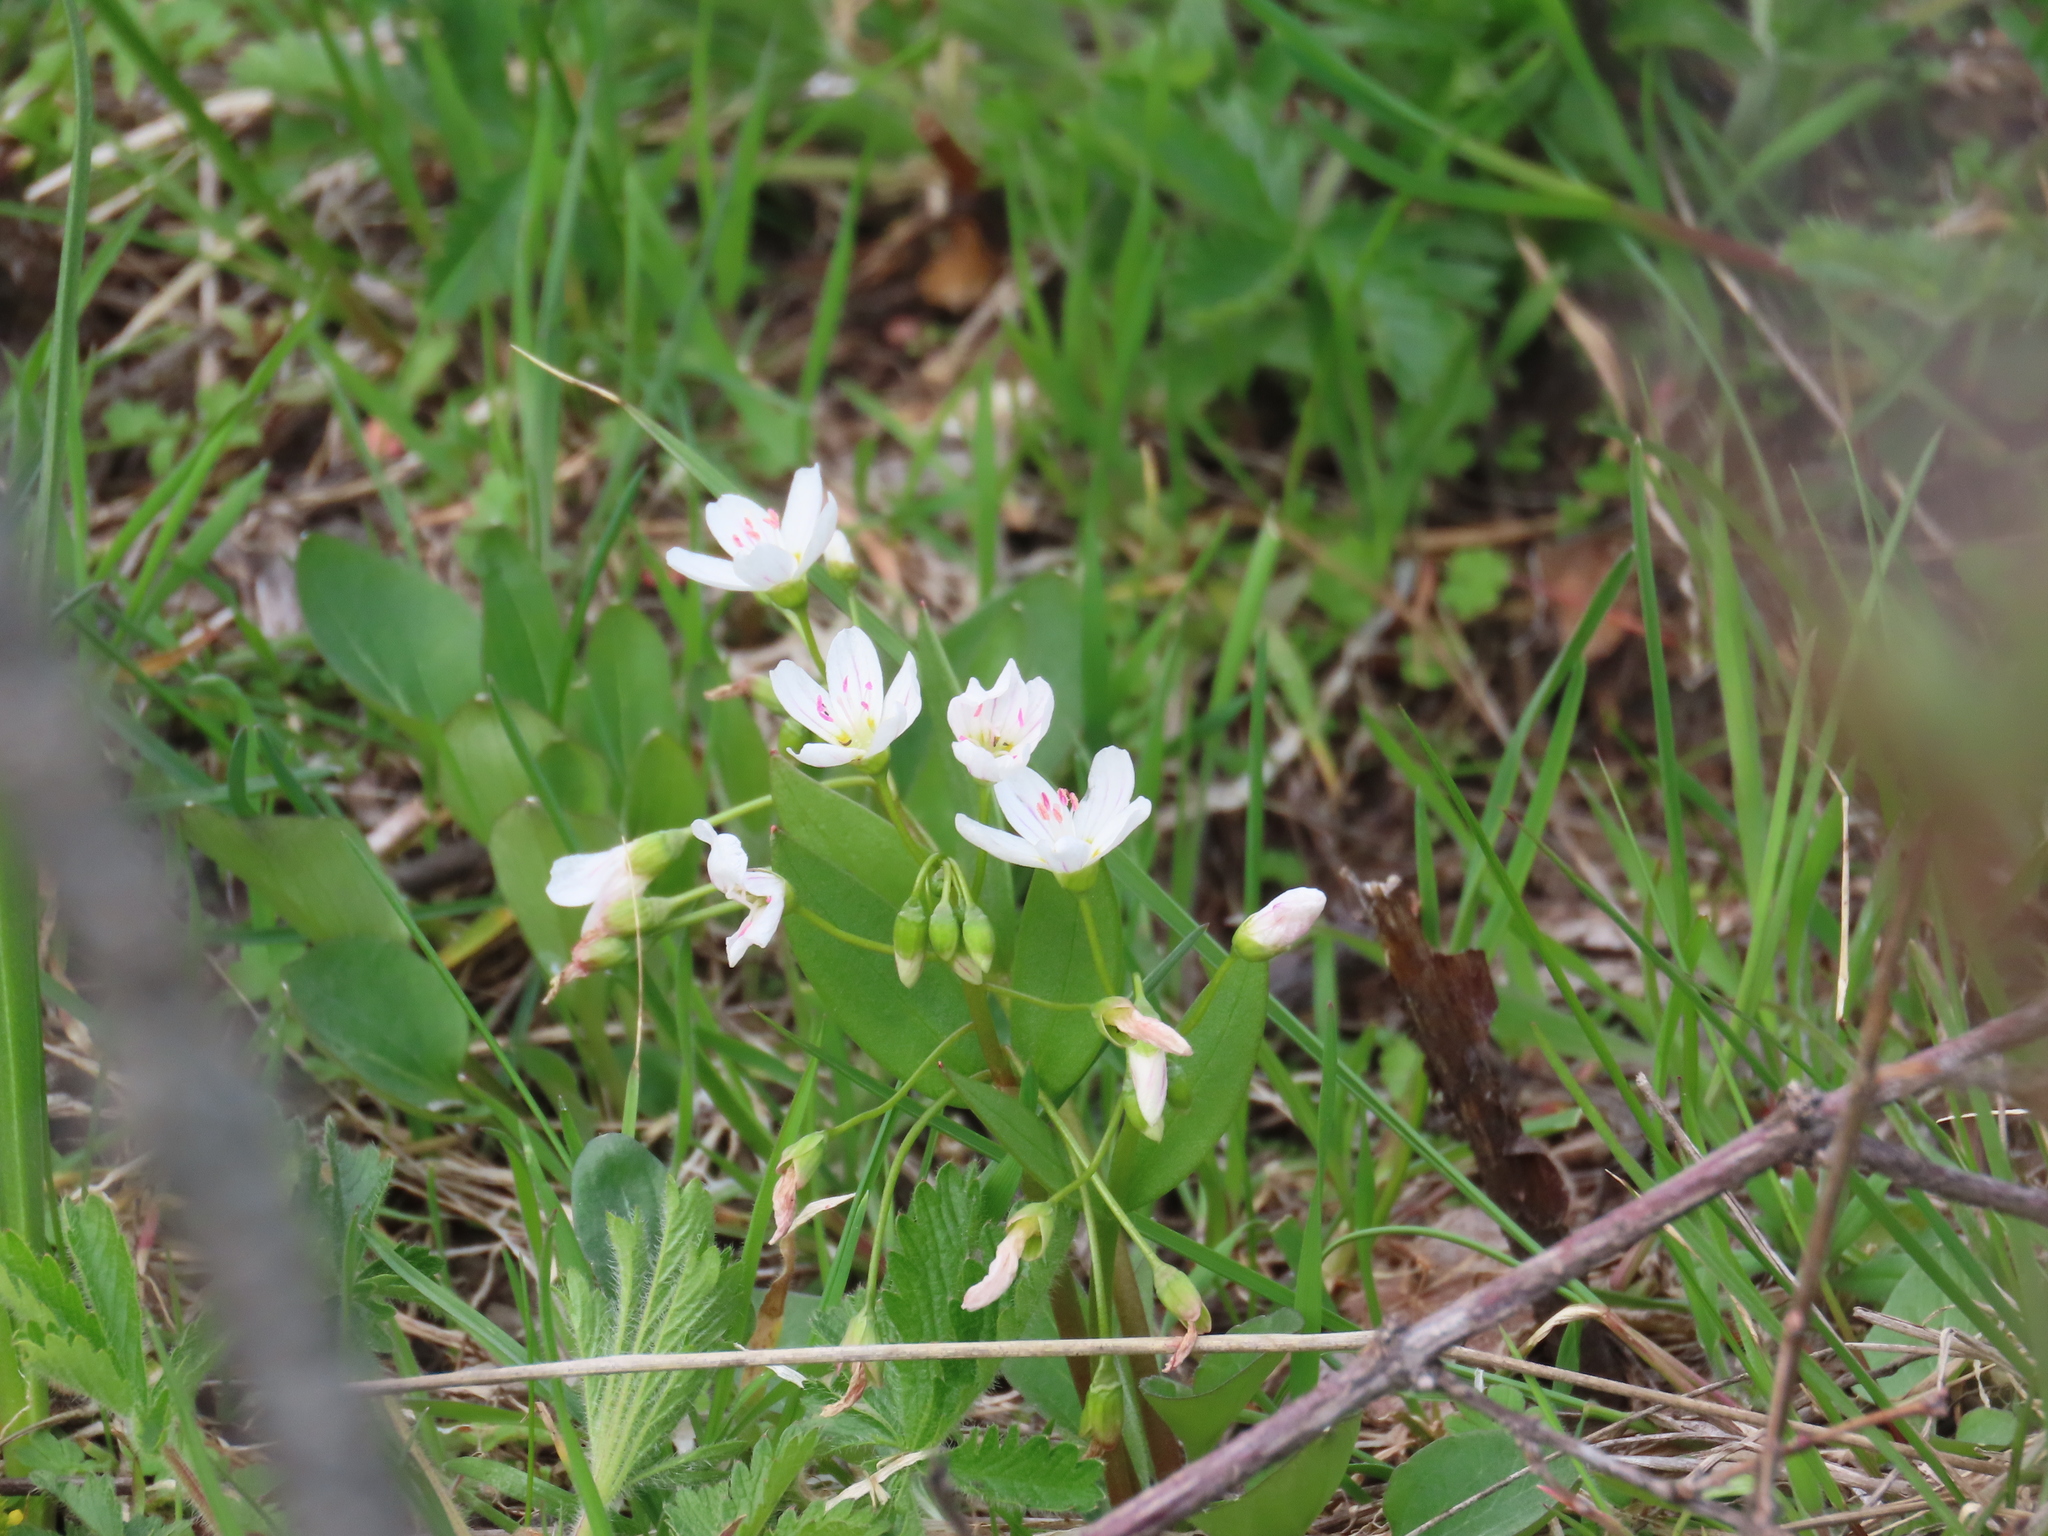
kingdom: Plantae
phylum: Tracheophyta
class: Magnoliopsida
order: Caryophyllales
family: Montiaceae
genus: Claytonia
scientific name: Claytonia lanceolata
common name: Western spring-beauty
